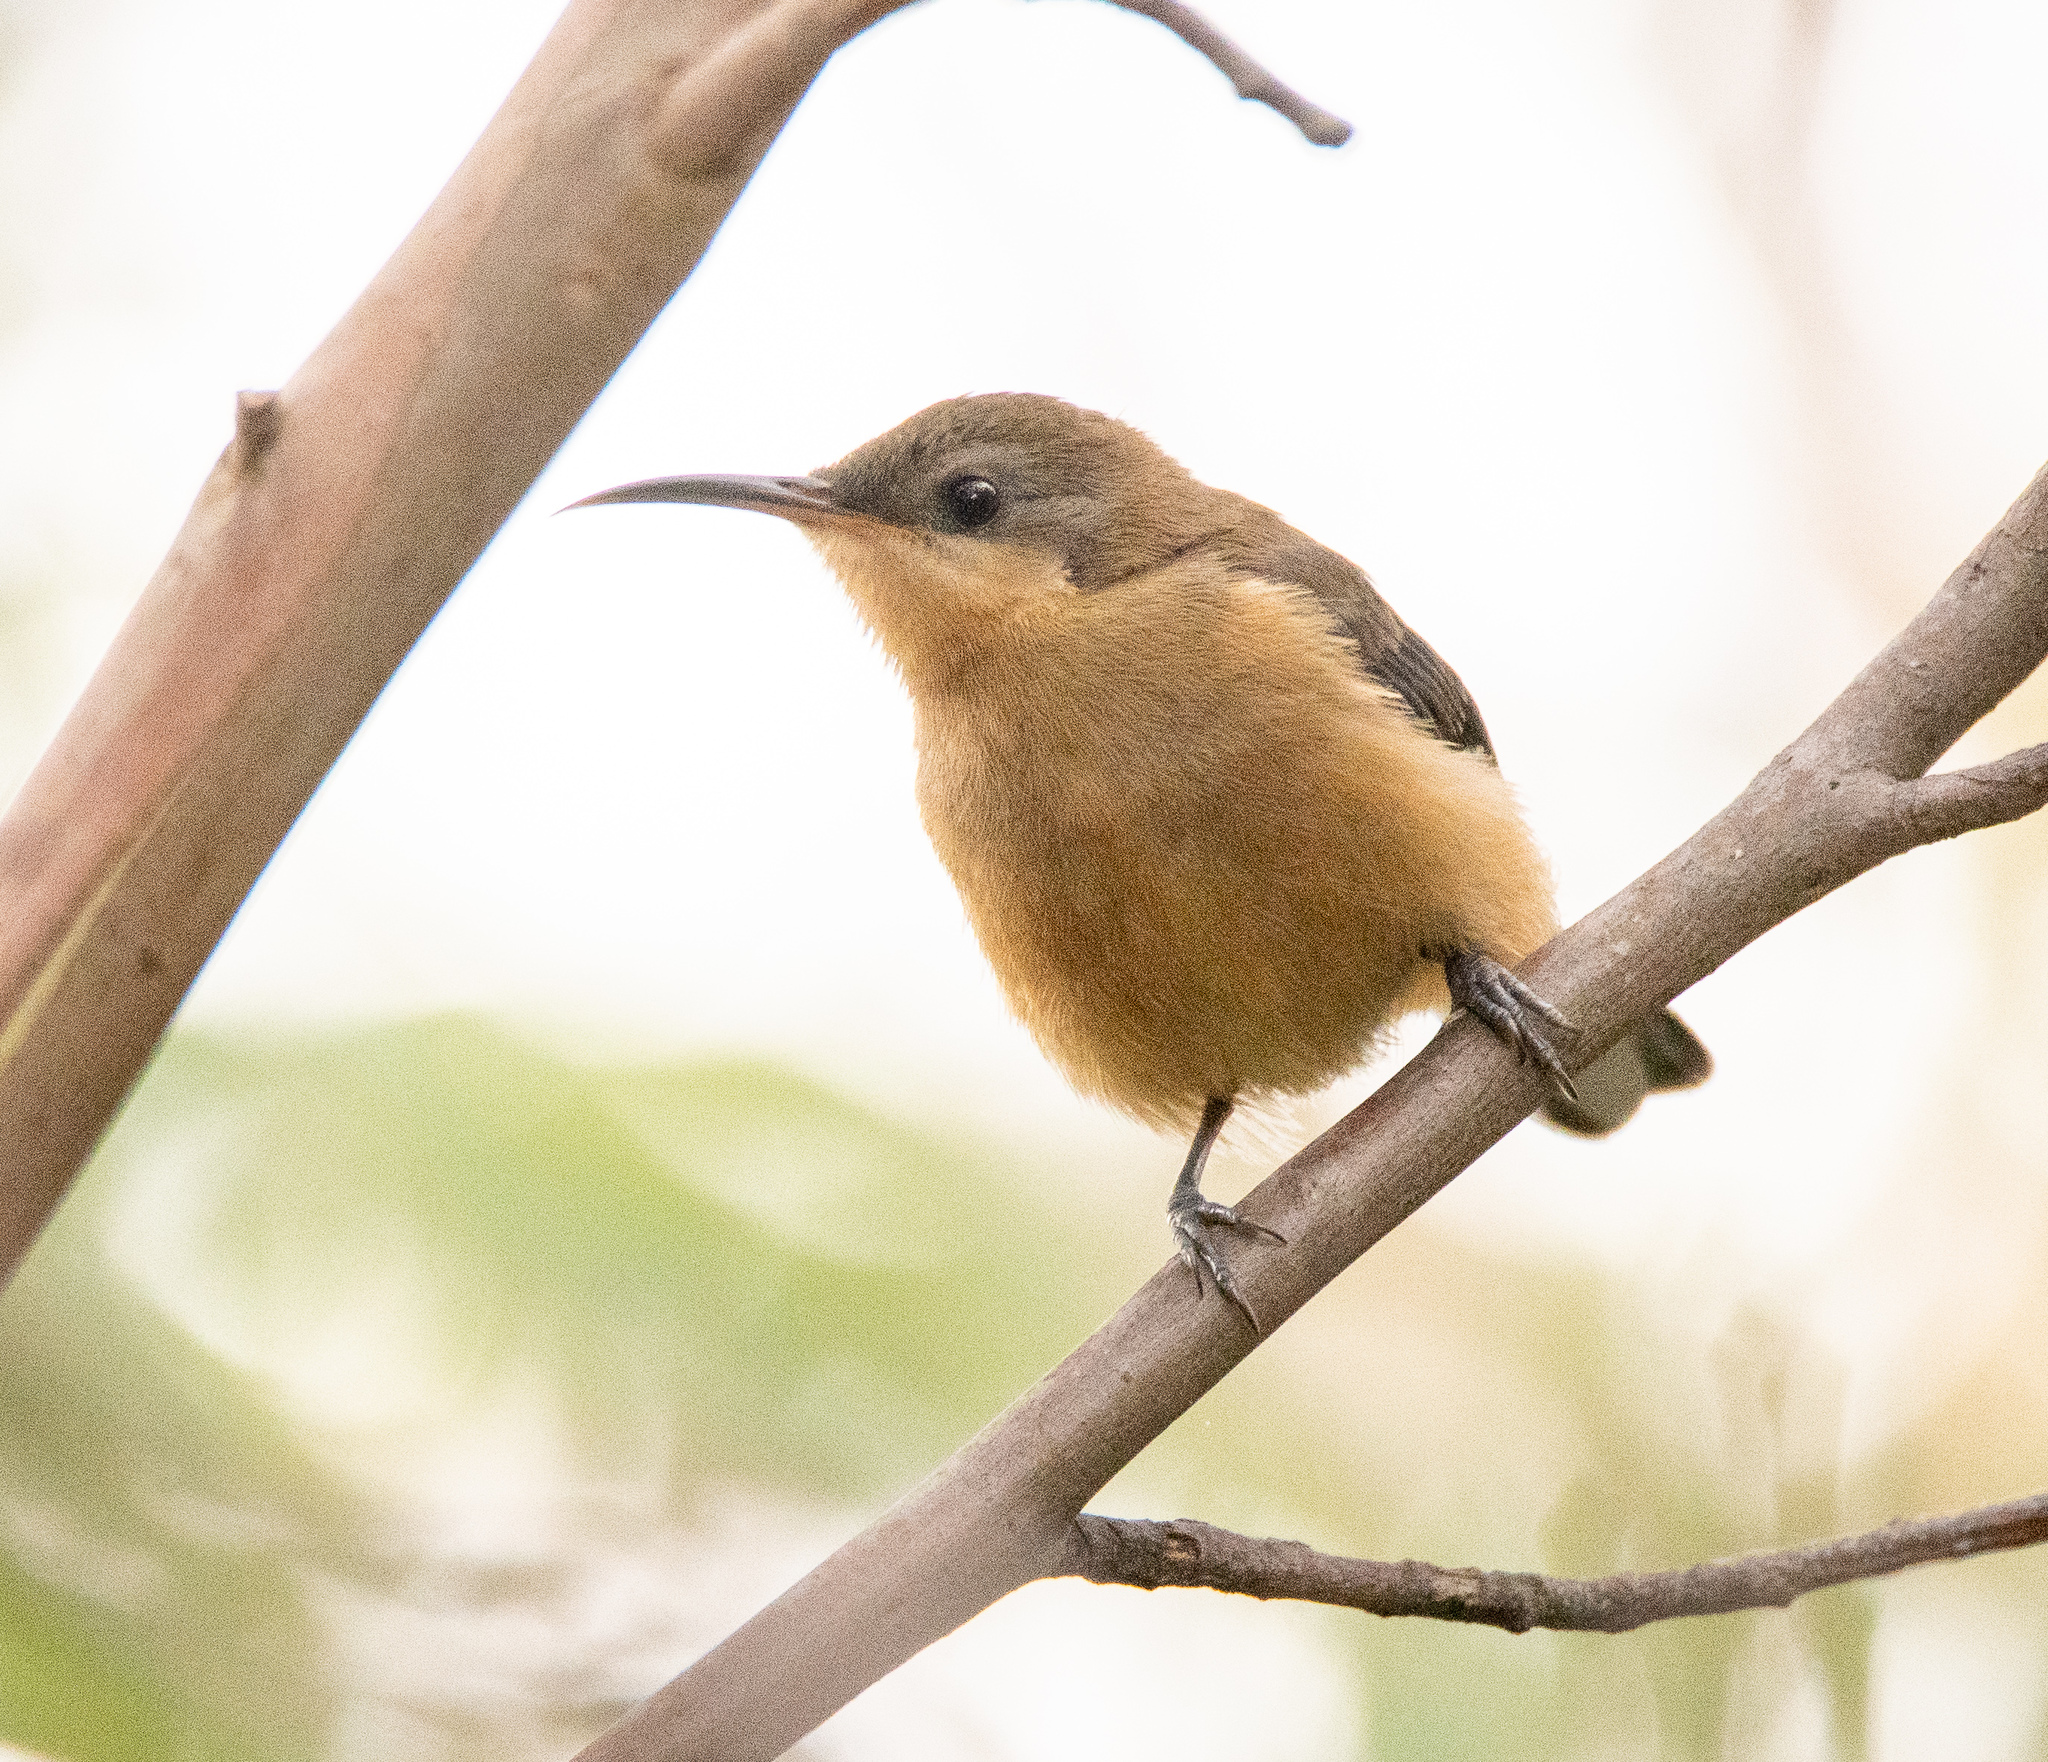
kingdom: Animalia
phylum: Chordata
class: Aves
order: Passeriformes
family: Meliphagidae
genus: Acanthorhynchus
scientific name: Acanthorhynchus tenuirostris
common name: Eastern spinebill
